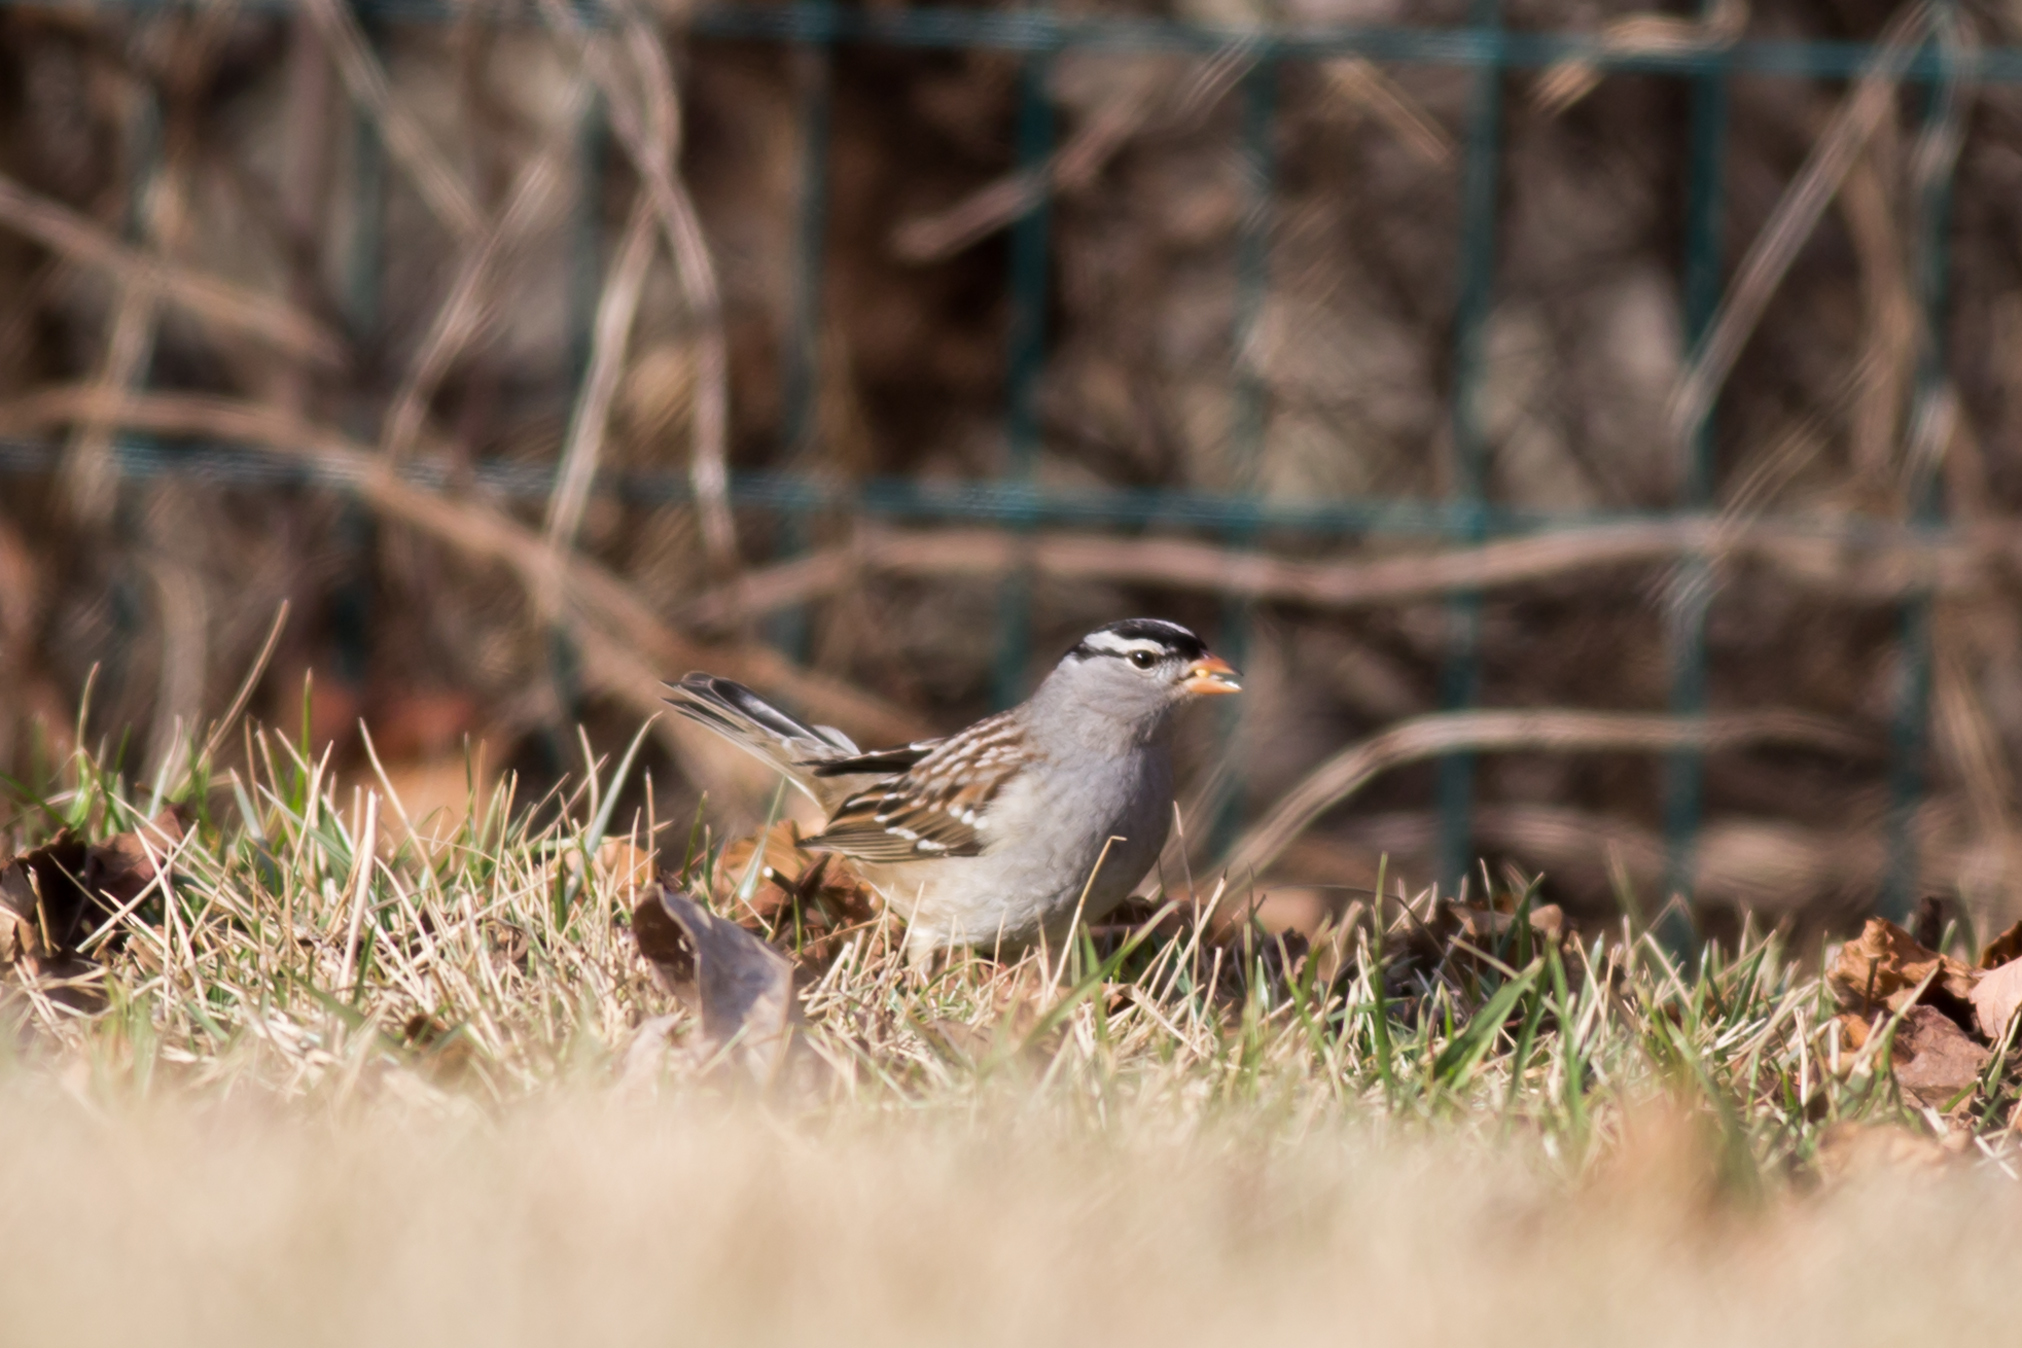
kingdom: Animalia
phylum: Chordata
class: Aves
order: Passeriformes
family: Passerellidae
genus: Zonotrichia
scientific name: Zonotrichia leucophrys
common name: White-crowned sparrow
